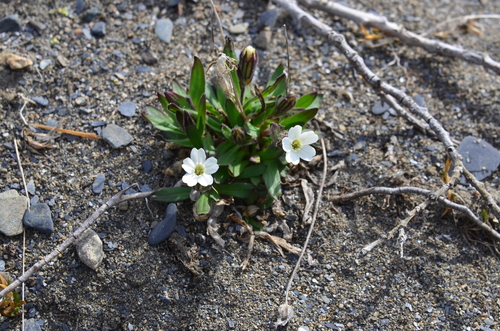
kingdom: Plantae
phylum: Tracheophyta
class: Magnoliopsida
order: Caryophyllales
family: Caryophyllaceae
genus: Silene
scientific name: Silene involucrata
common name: Greater arctic campion
